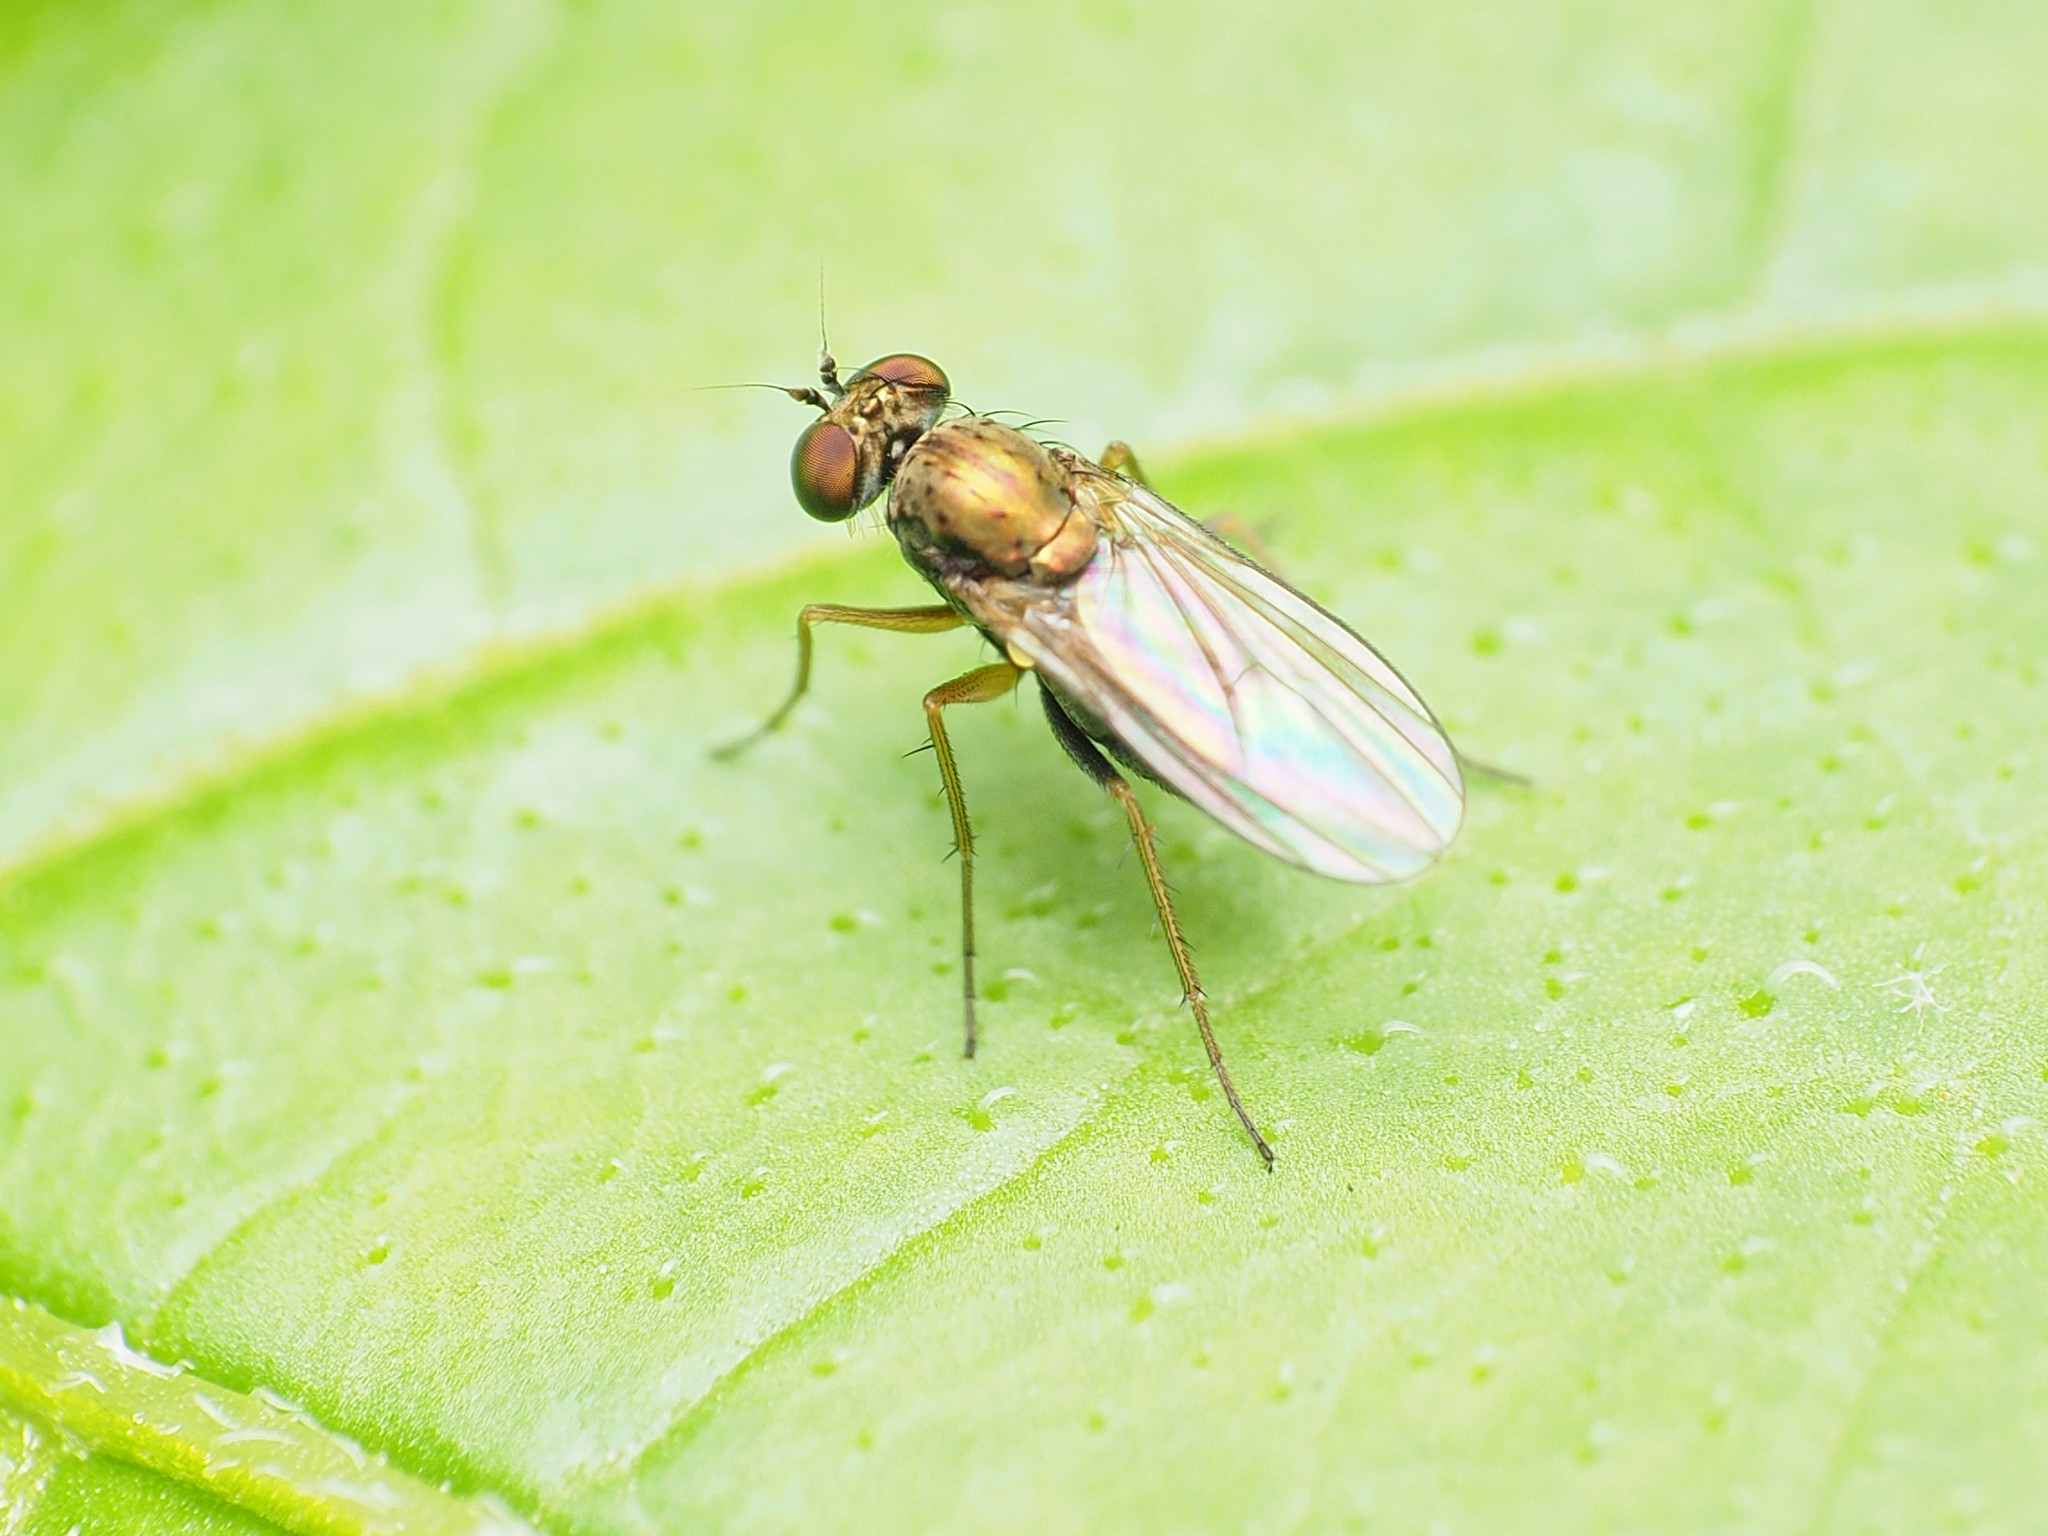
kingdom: Animalia
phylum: Arthropoda
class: Insecta
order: Diptera
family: Dolichopodidae
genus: Achradocera
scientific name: Achradocera barbata
